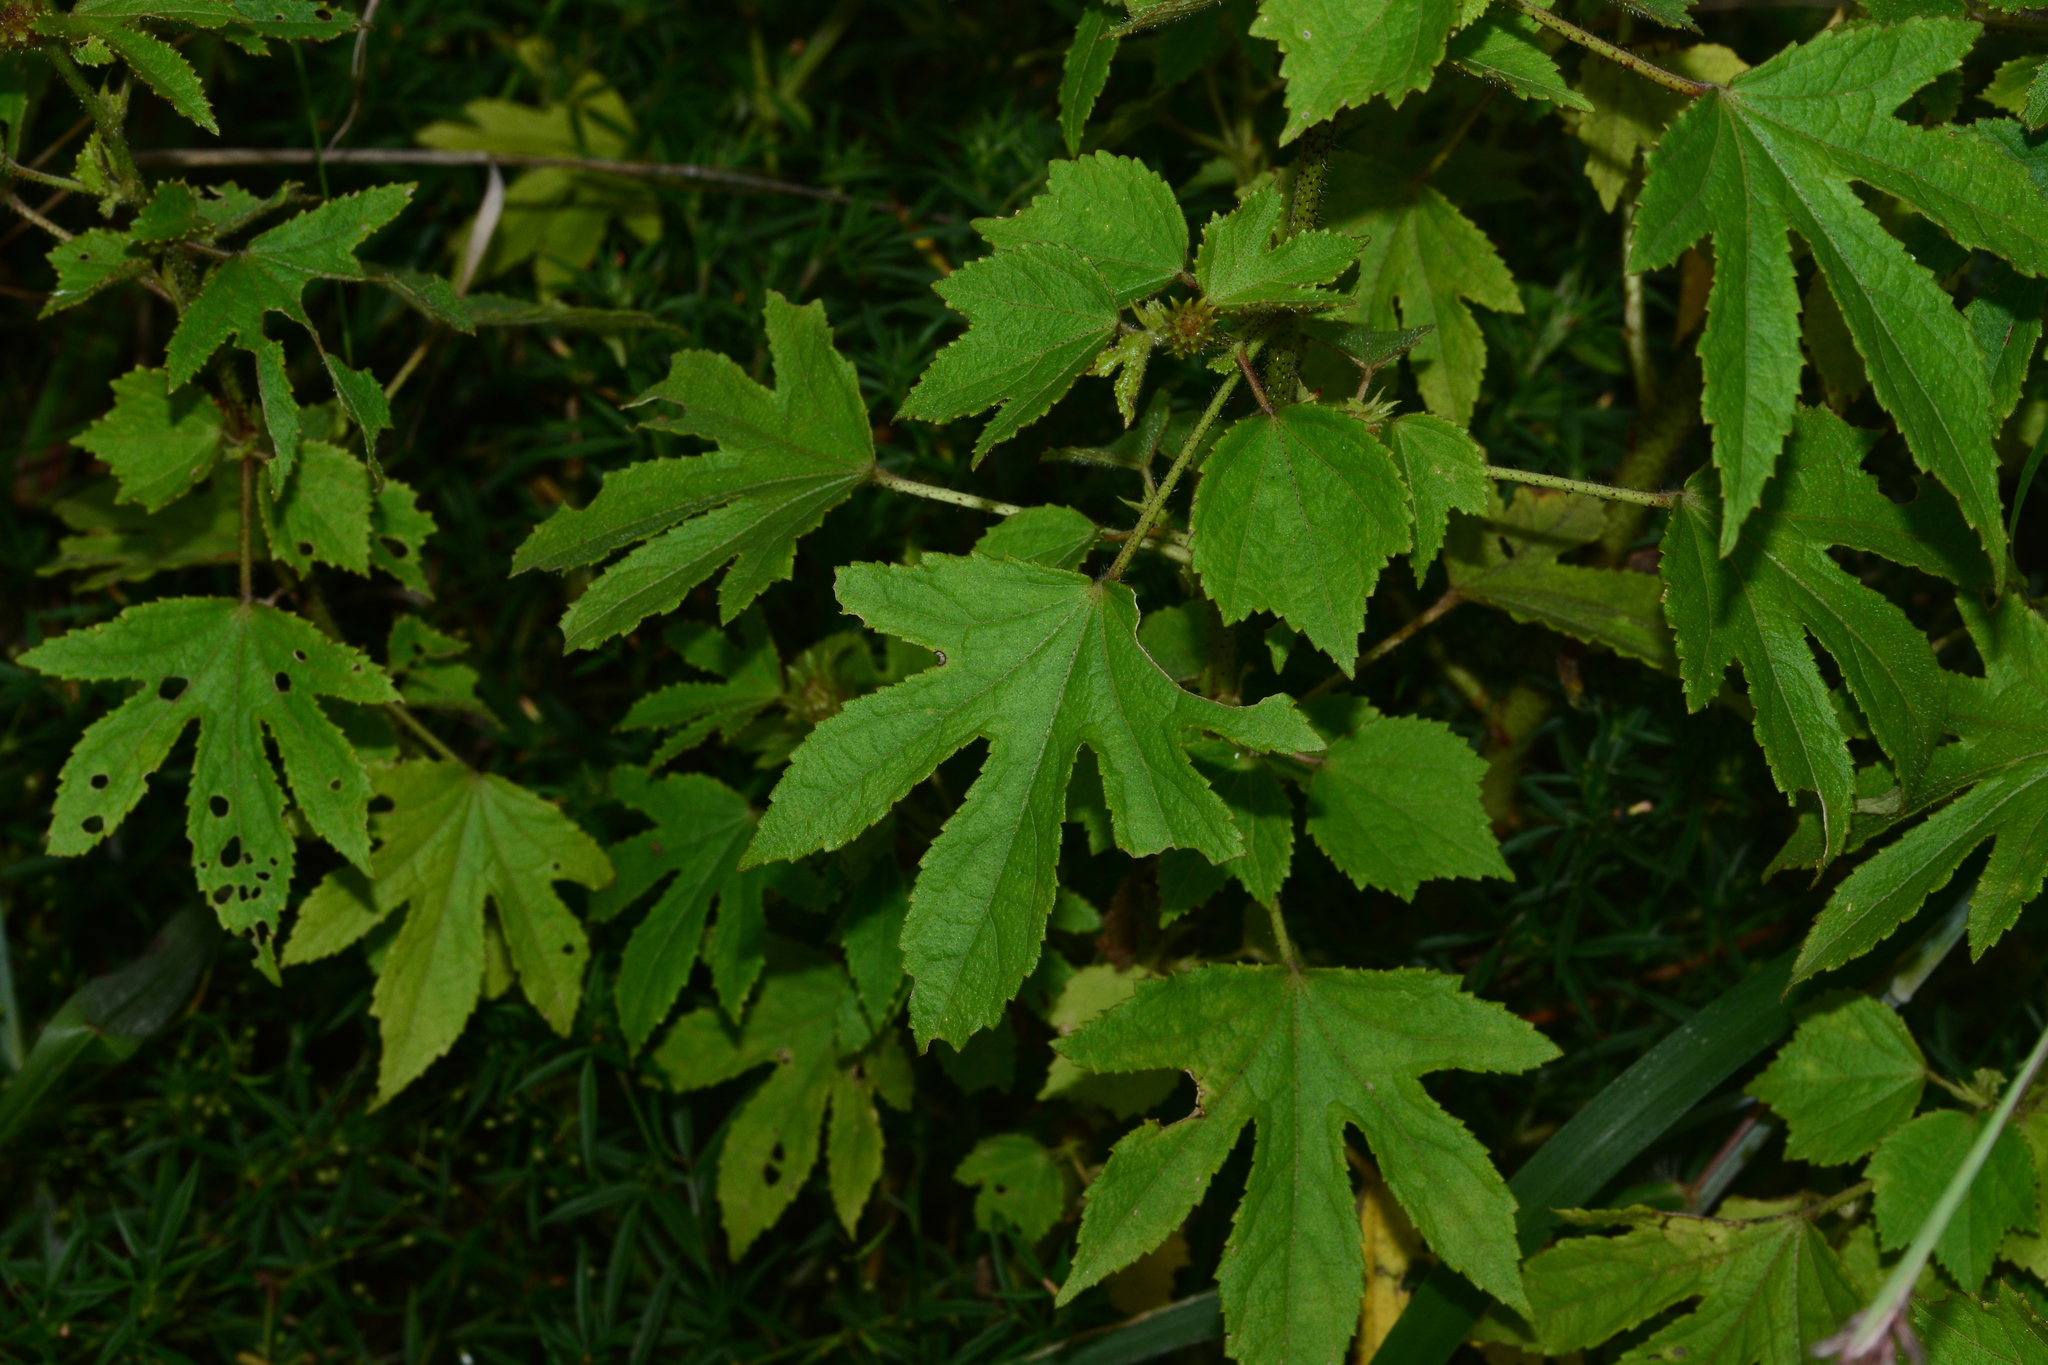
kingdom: Plantae
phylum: Tracheophyta
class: Magnoliopsida
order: Malvales
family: Malvaceae
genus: Hibiscus
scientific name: Hibiscus radiatus
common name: Monarch rosemallow
